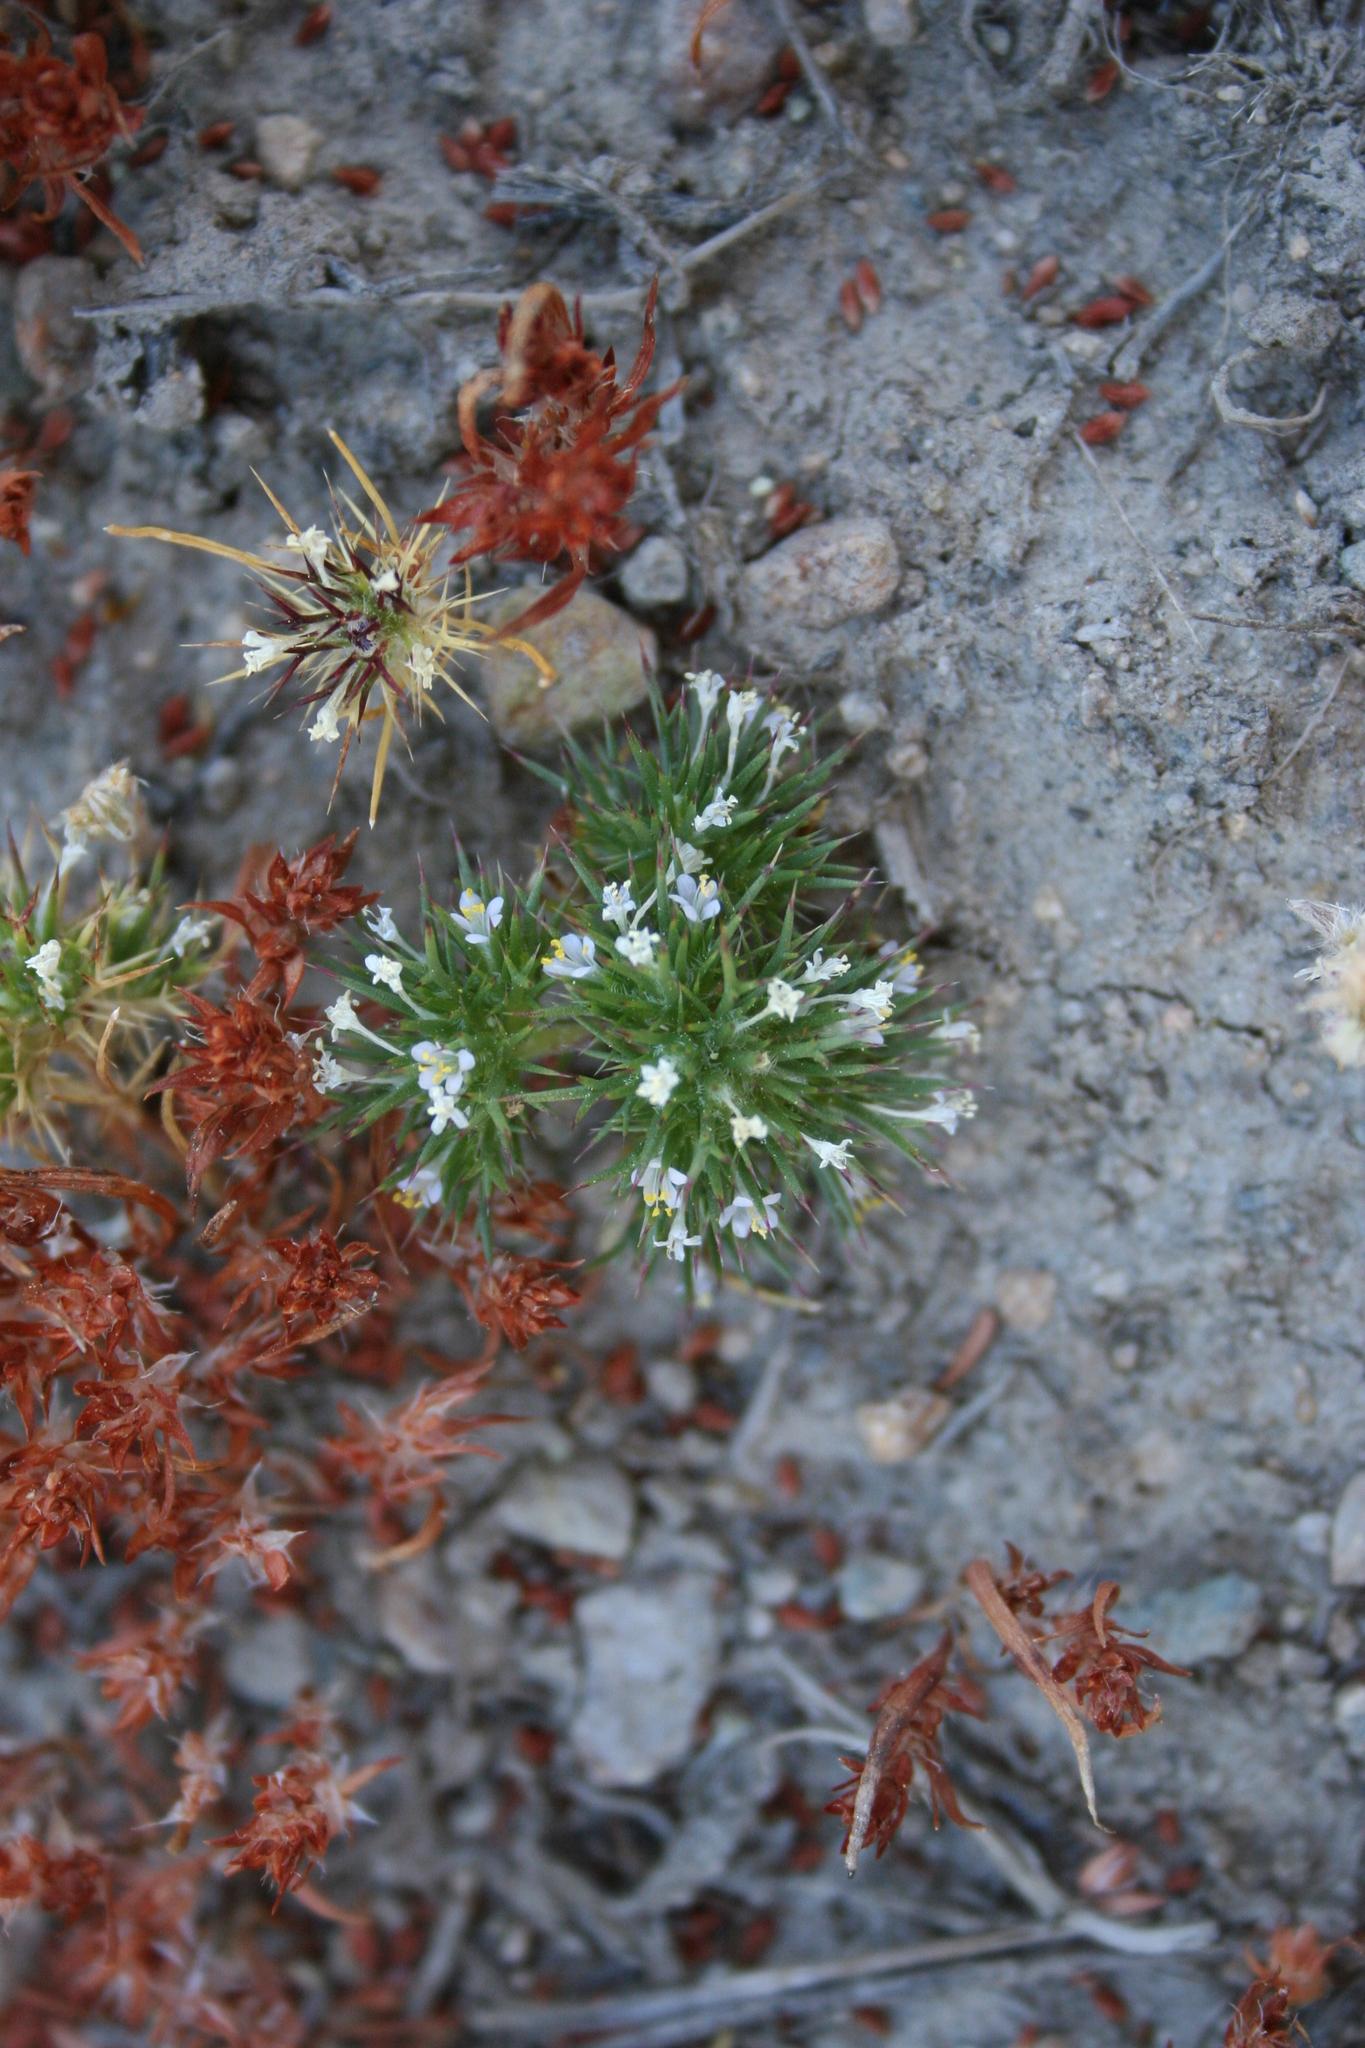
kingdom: Plantae
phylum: Tracheophyta
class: Magnoliopsida
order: Ericales
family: Polemoniaceae
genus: Navarretia
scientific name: Navarretia intertexta
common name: Needle-leaved navarretia
